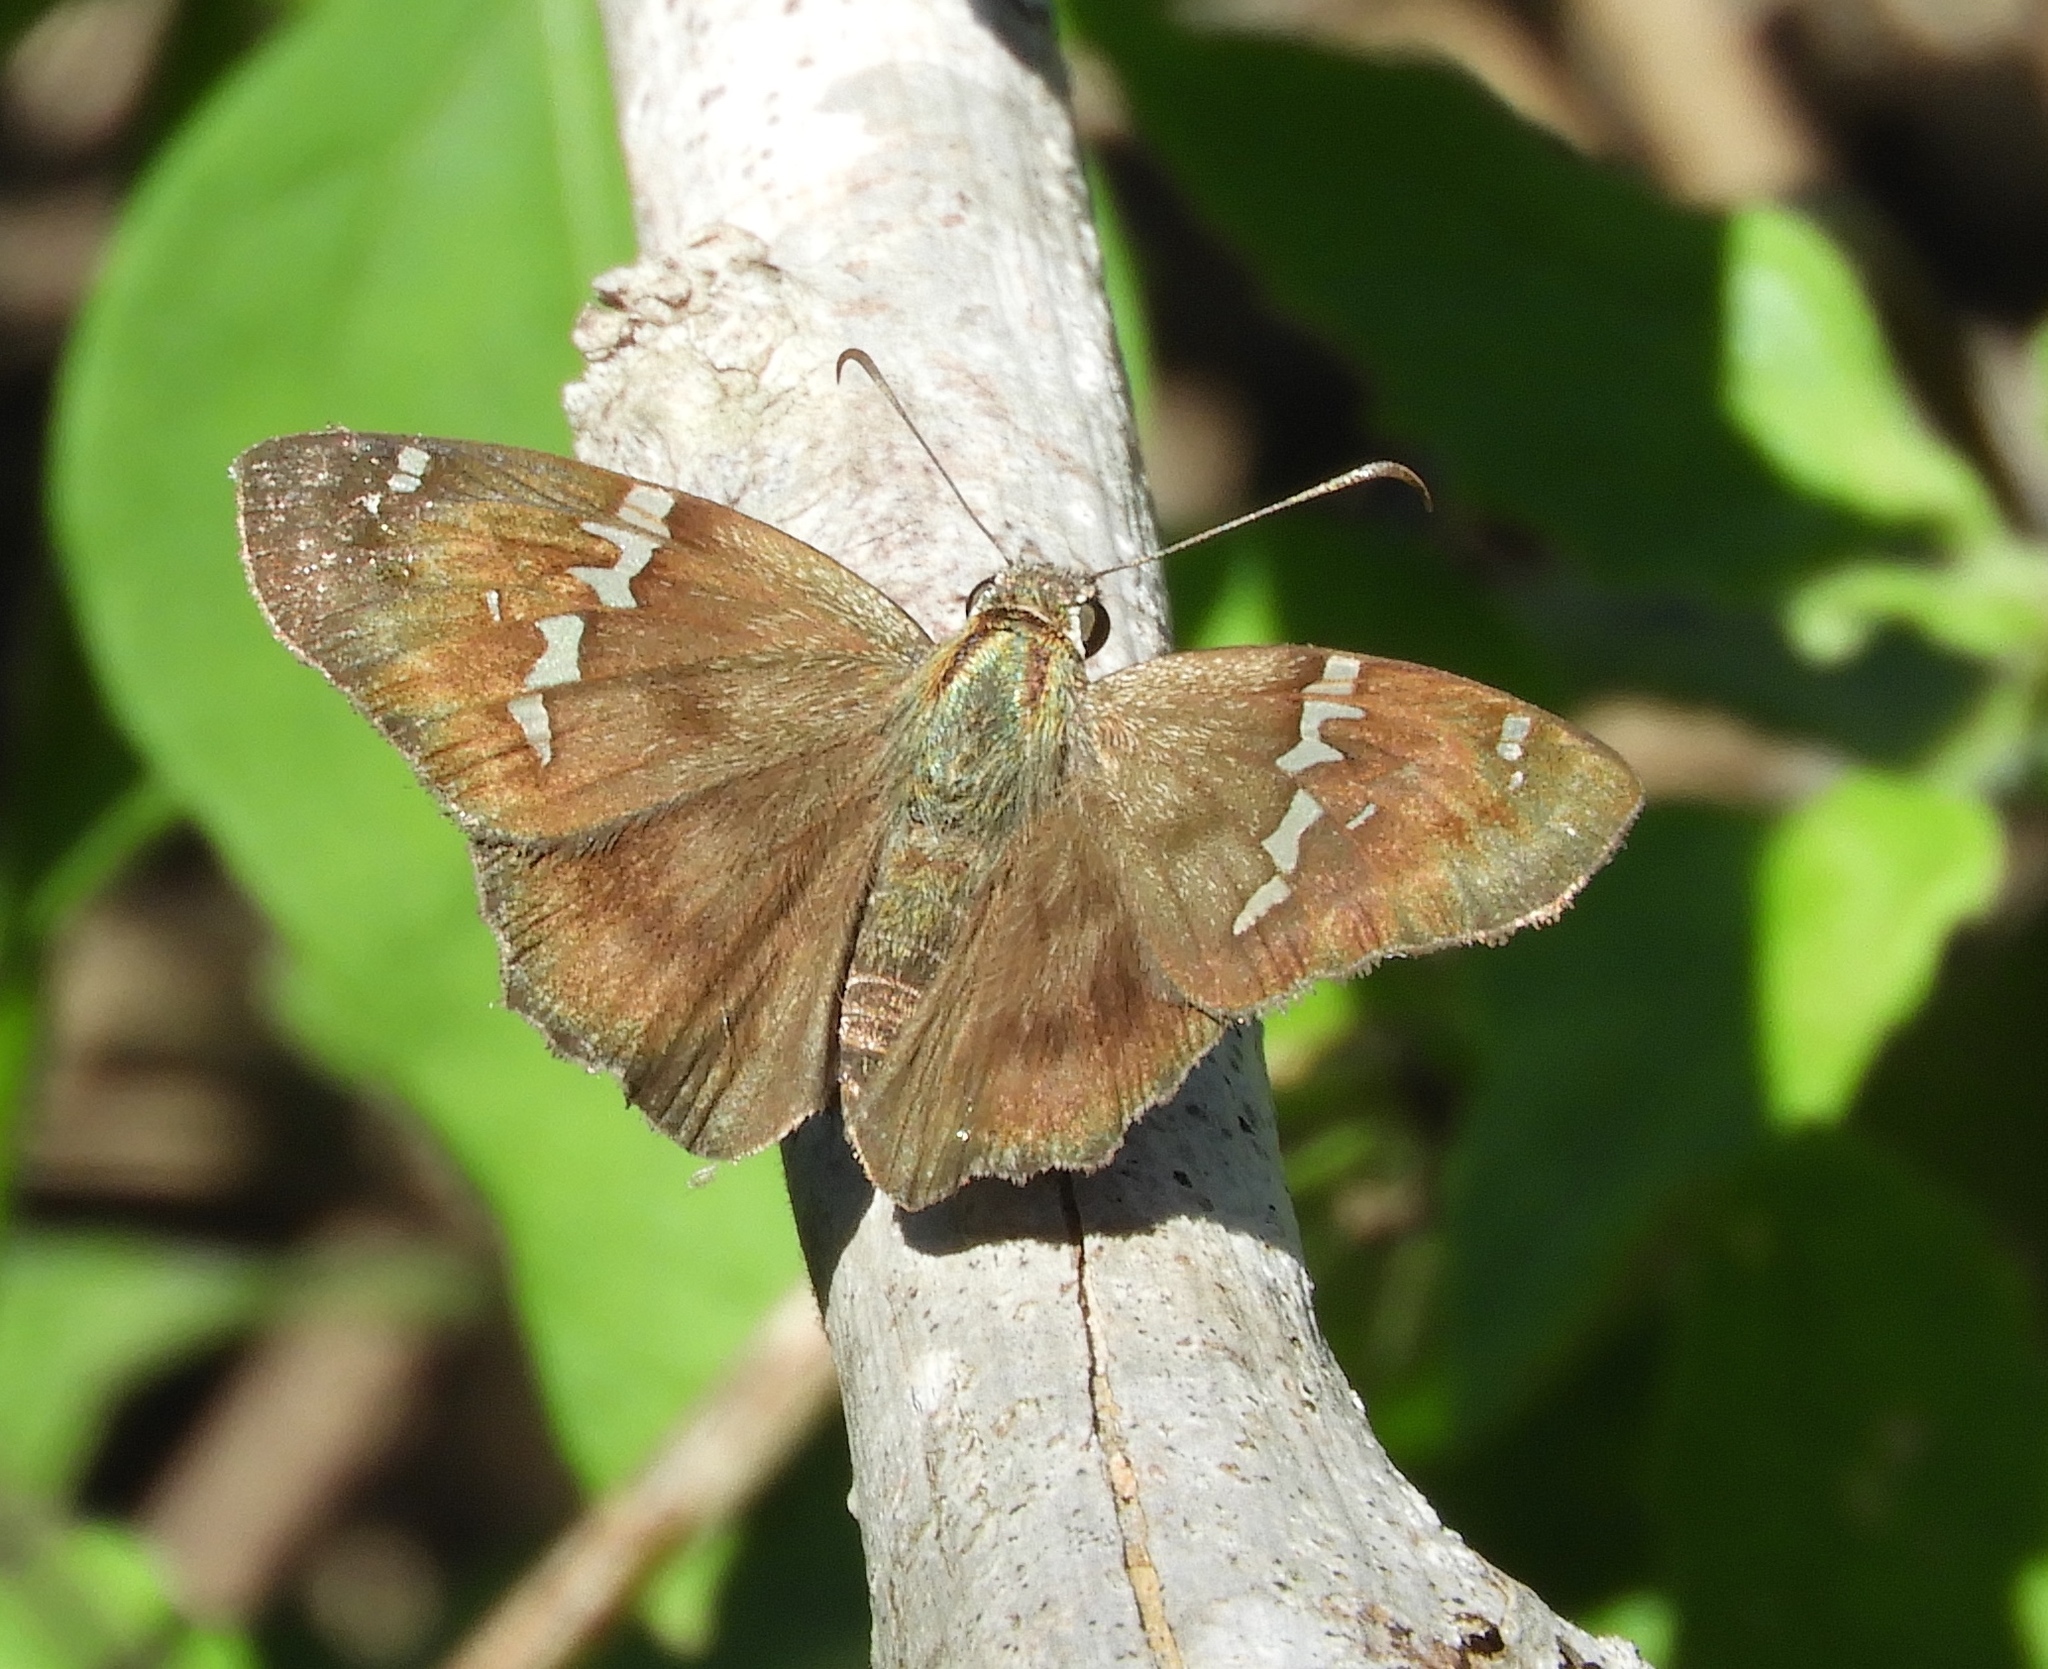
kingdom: Animalia
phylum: Arthropoda
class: Insecta
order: Lepidoptera
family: Hesperiidae
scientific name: Hesperiidae
